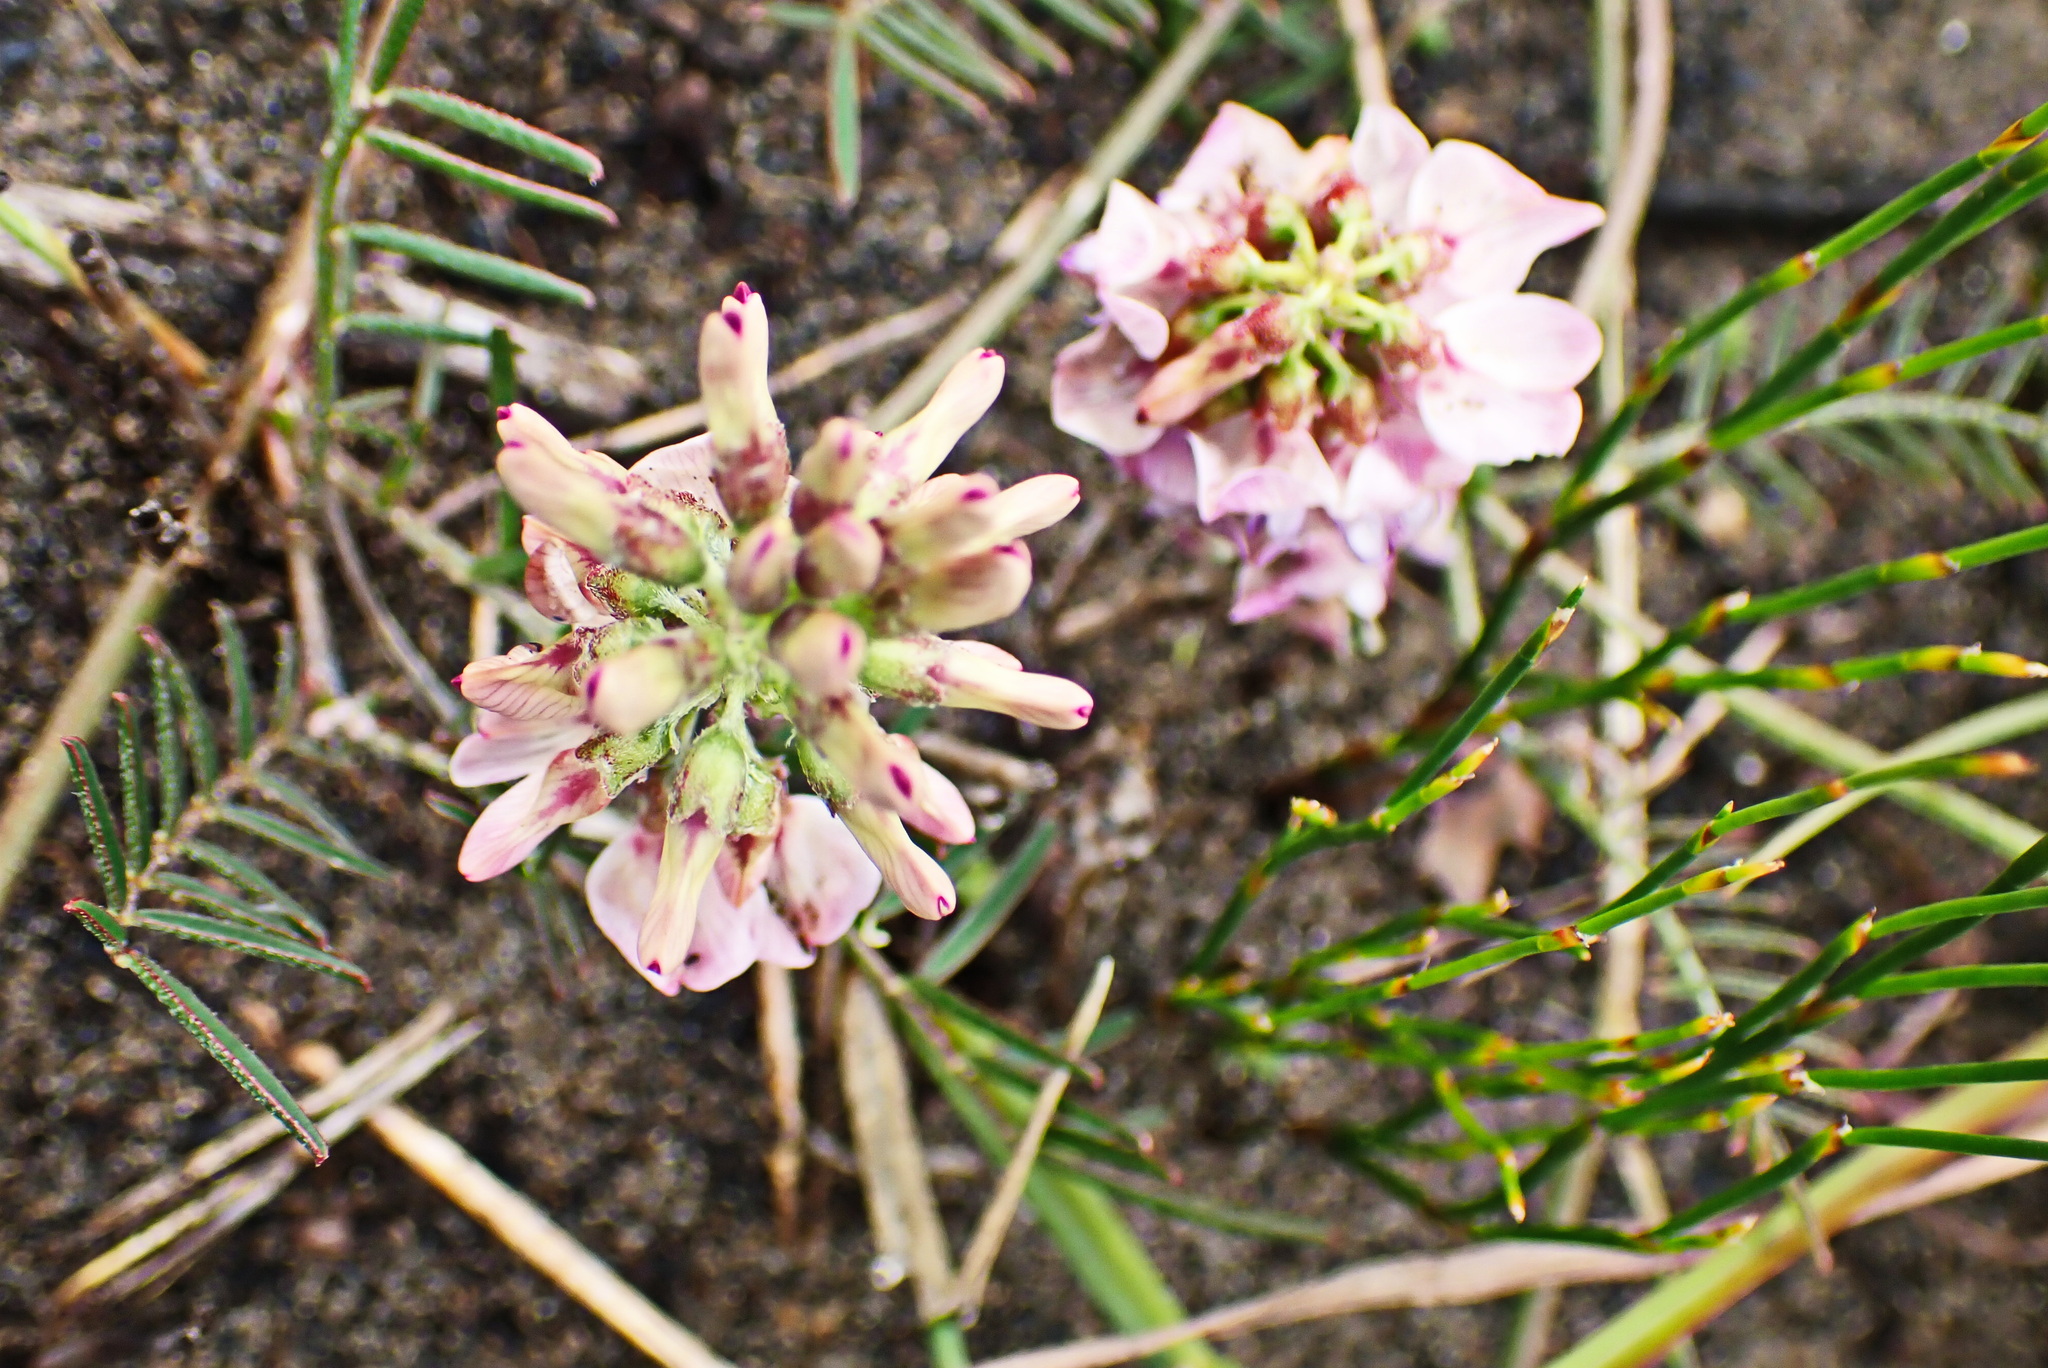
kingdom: Plantae
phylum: Tracheophyta
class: Magnoliopsida
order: Fabales
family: Fabaceae
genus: Lessertia
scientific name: Lessertia obtusata
